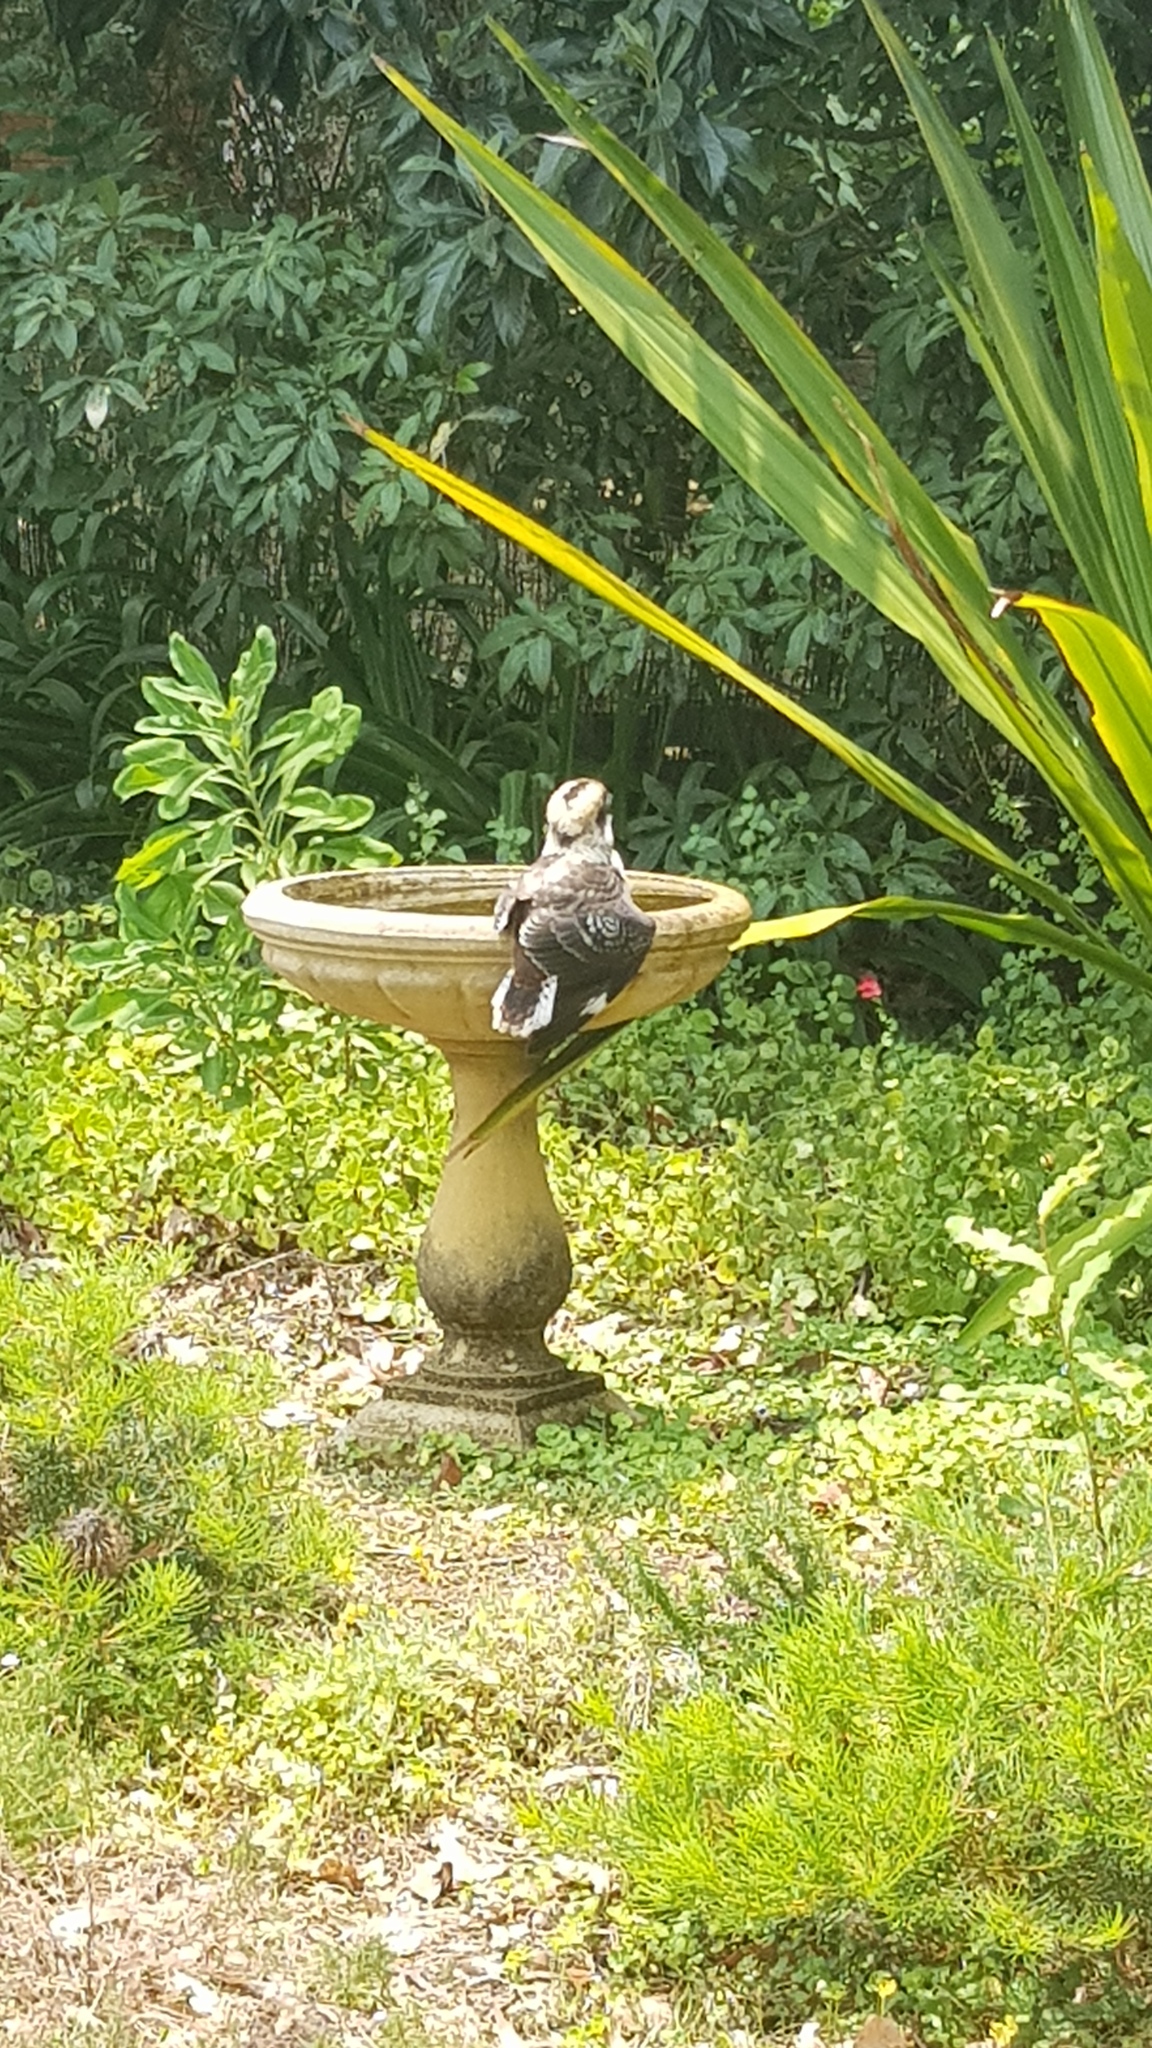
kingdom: Animalia
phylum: Chordata
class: Aves
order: Coraciiformes
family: Alcedinidae
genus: Dacelo
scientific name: Dacelo novaeguineae
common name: Laughing kookaburra
